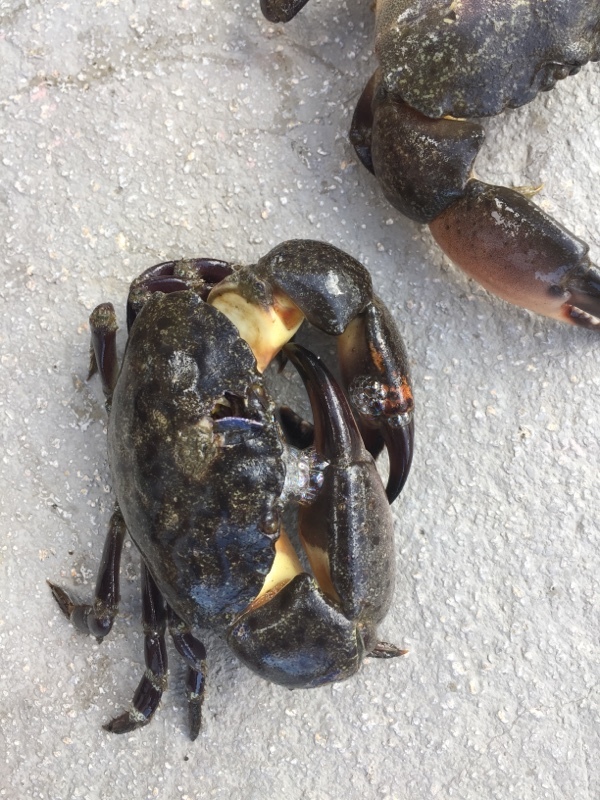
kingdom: Animalia
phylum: Arthropoda
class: Malacostraca
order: Decapoda
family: Menippidae
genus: Menippe
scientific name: Menippe mercenaria
